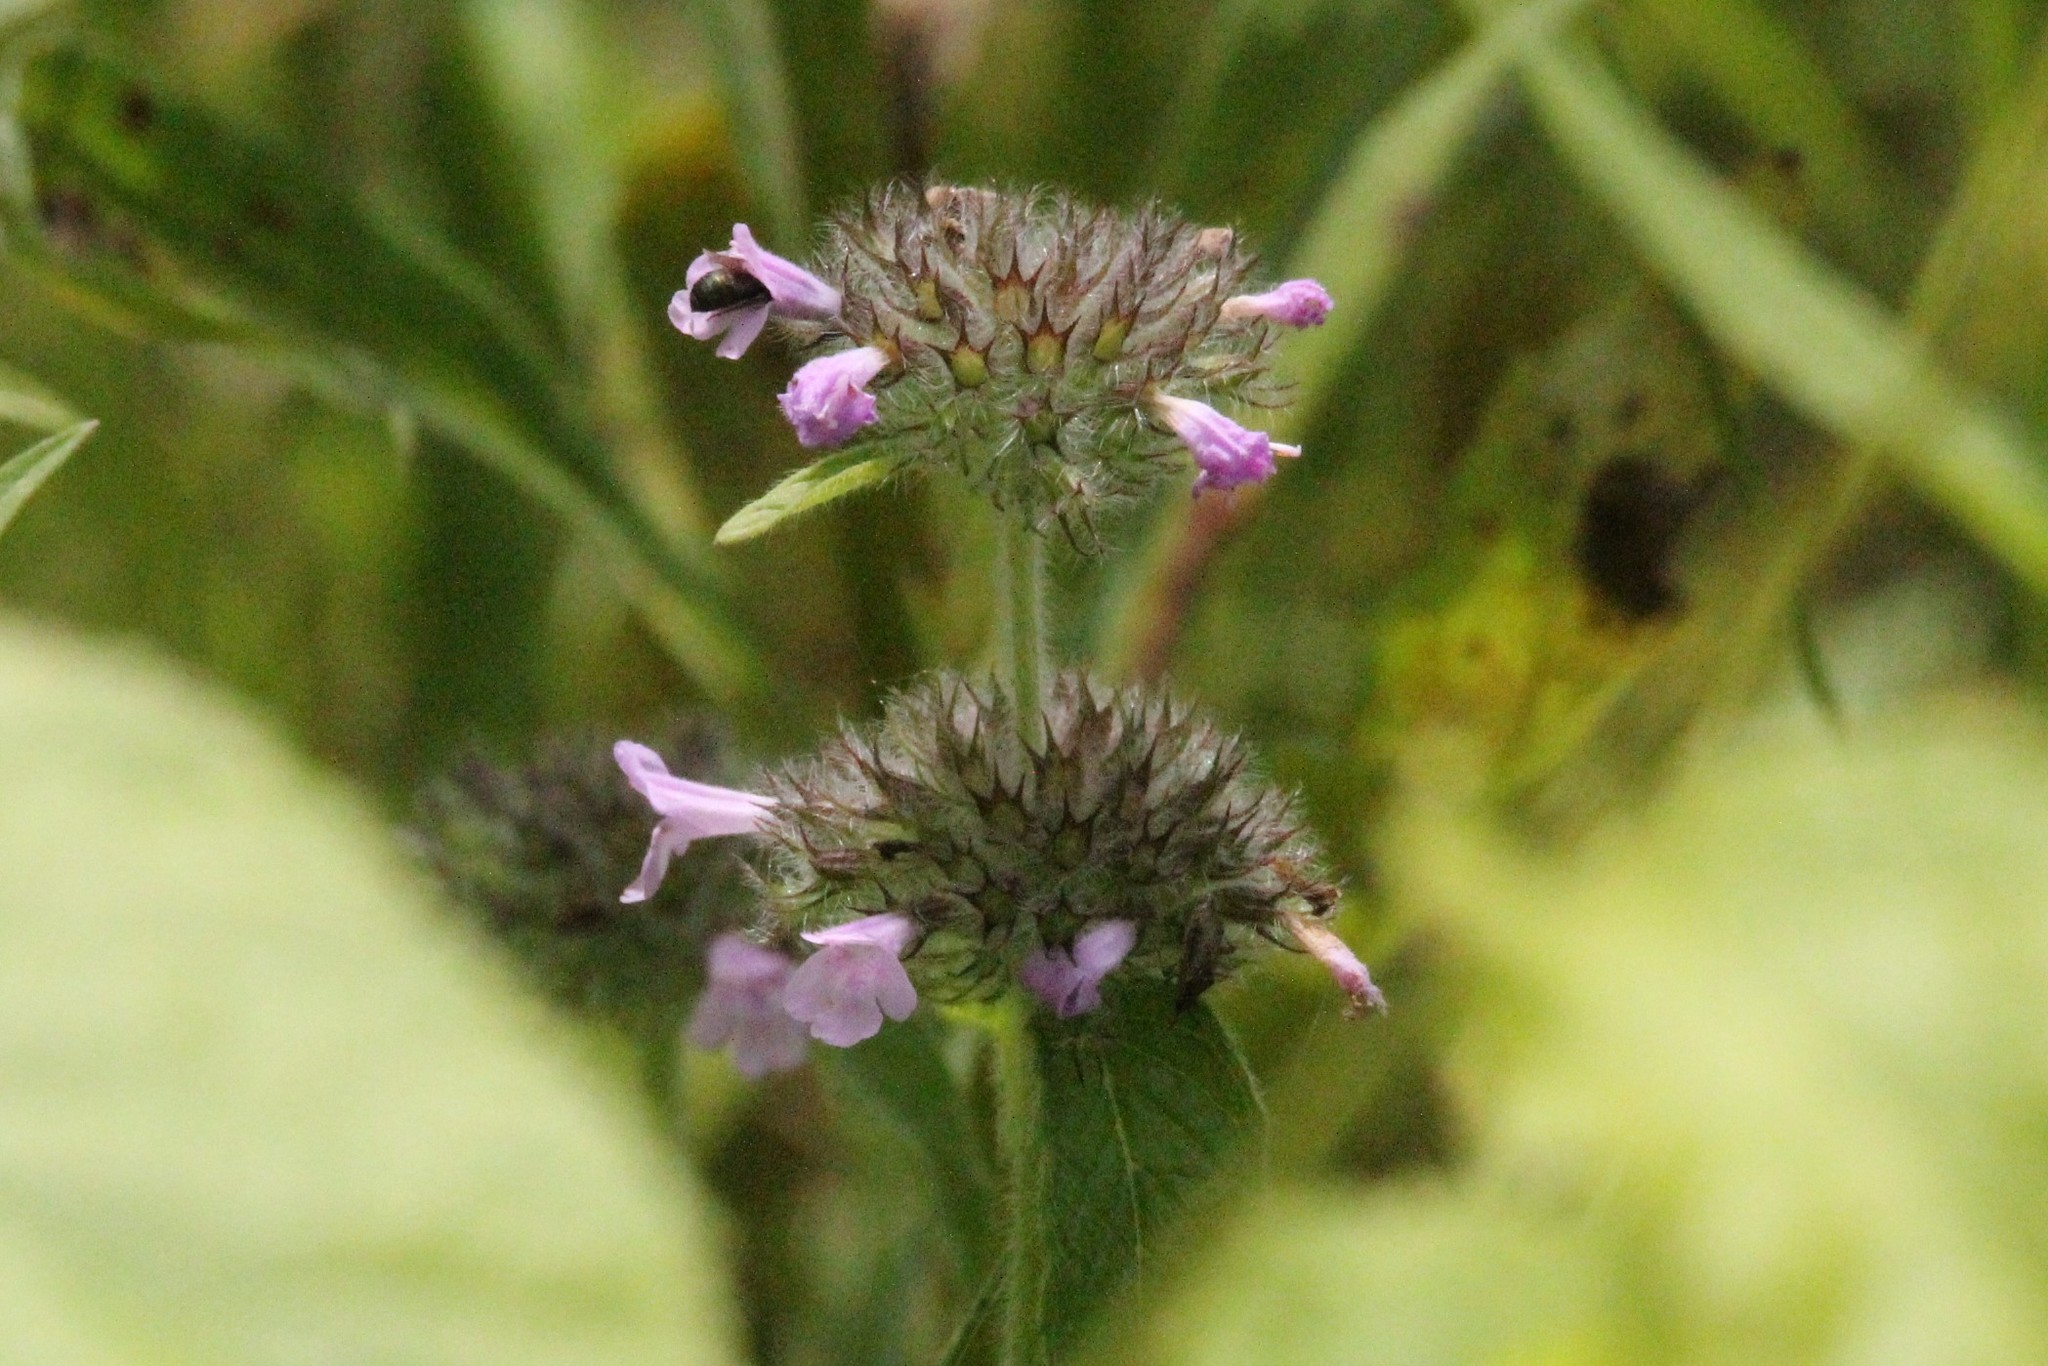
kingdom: Plantae
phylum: Tracheophyta
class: Magnoliopsida
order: Lamiales
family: Lamiaceae
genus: Clinopodium
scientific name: Clinopodium vulgare
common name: Wild basil
